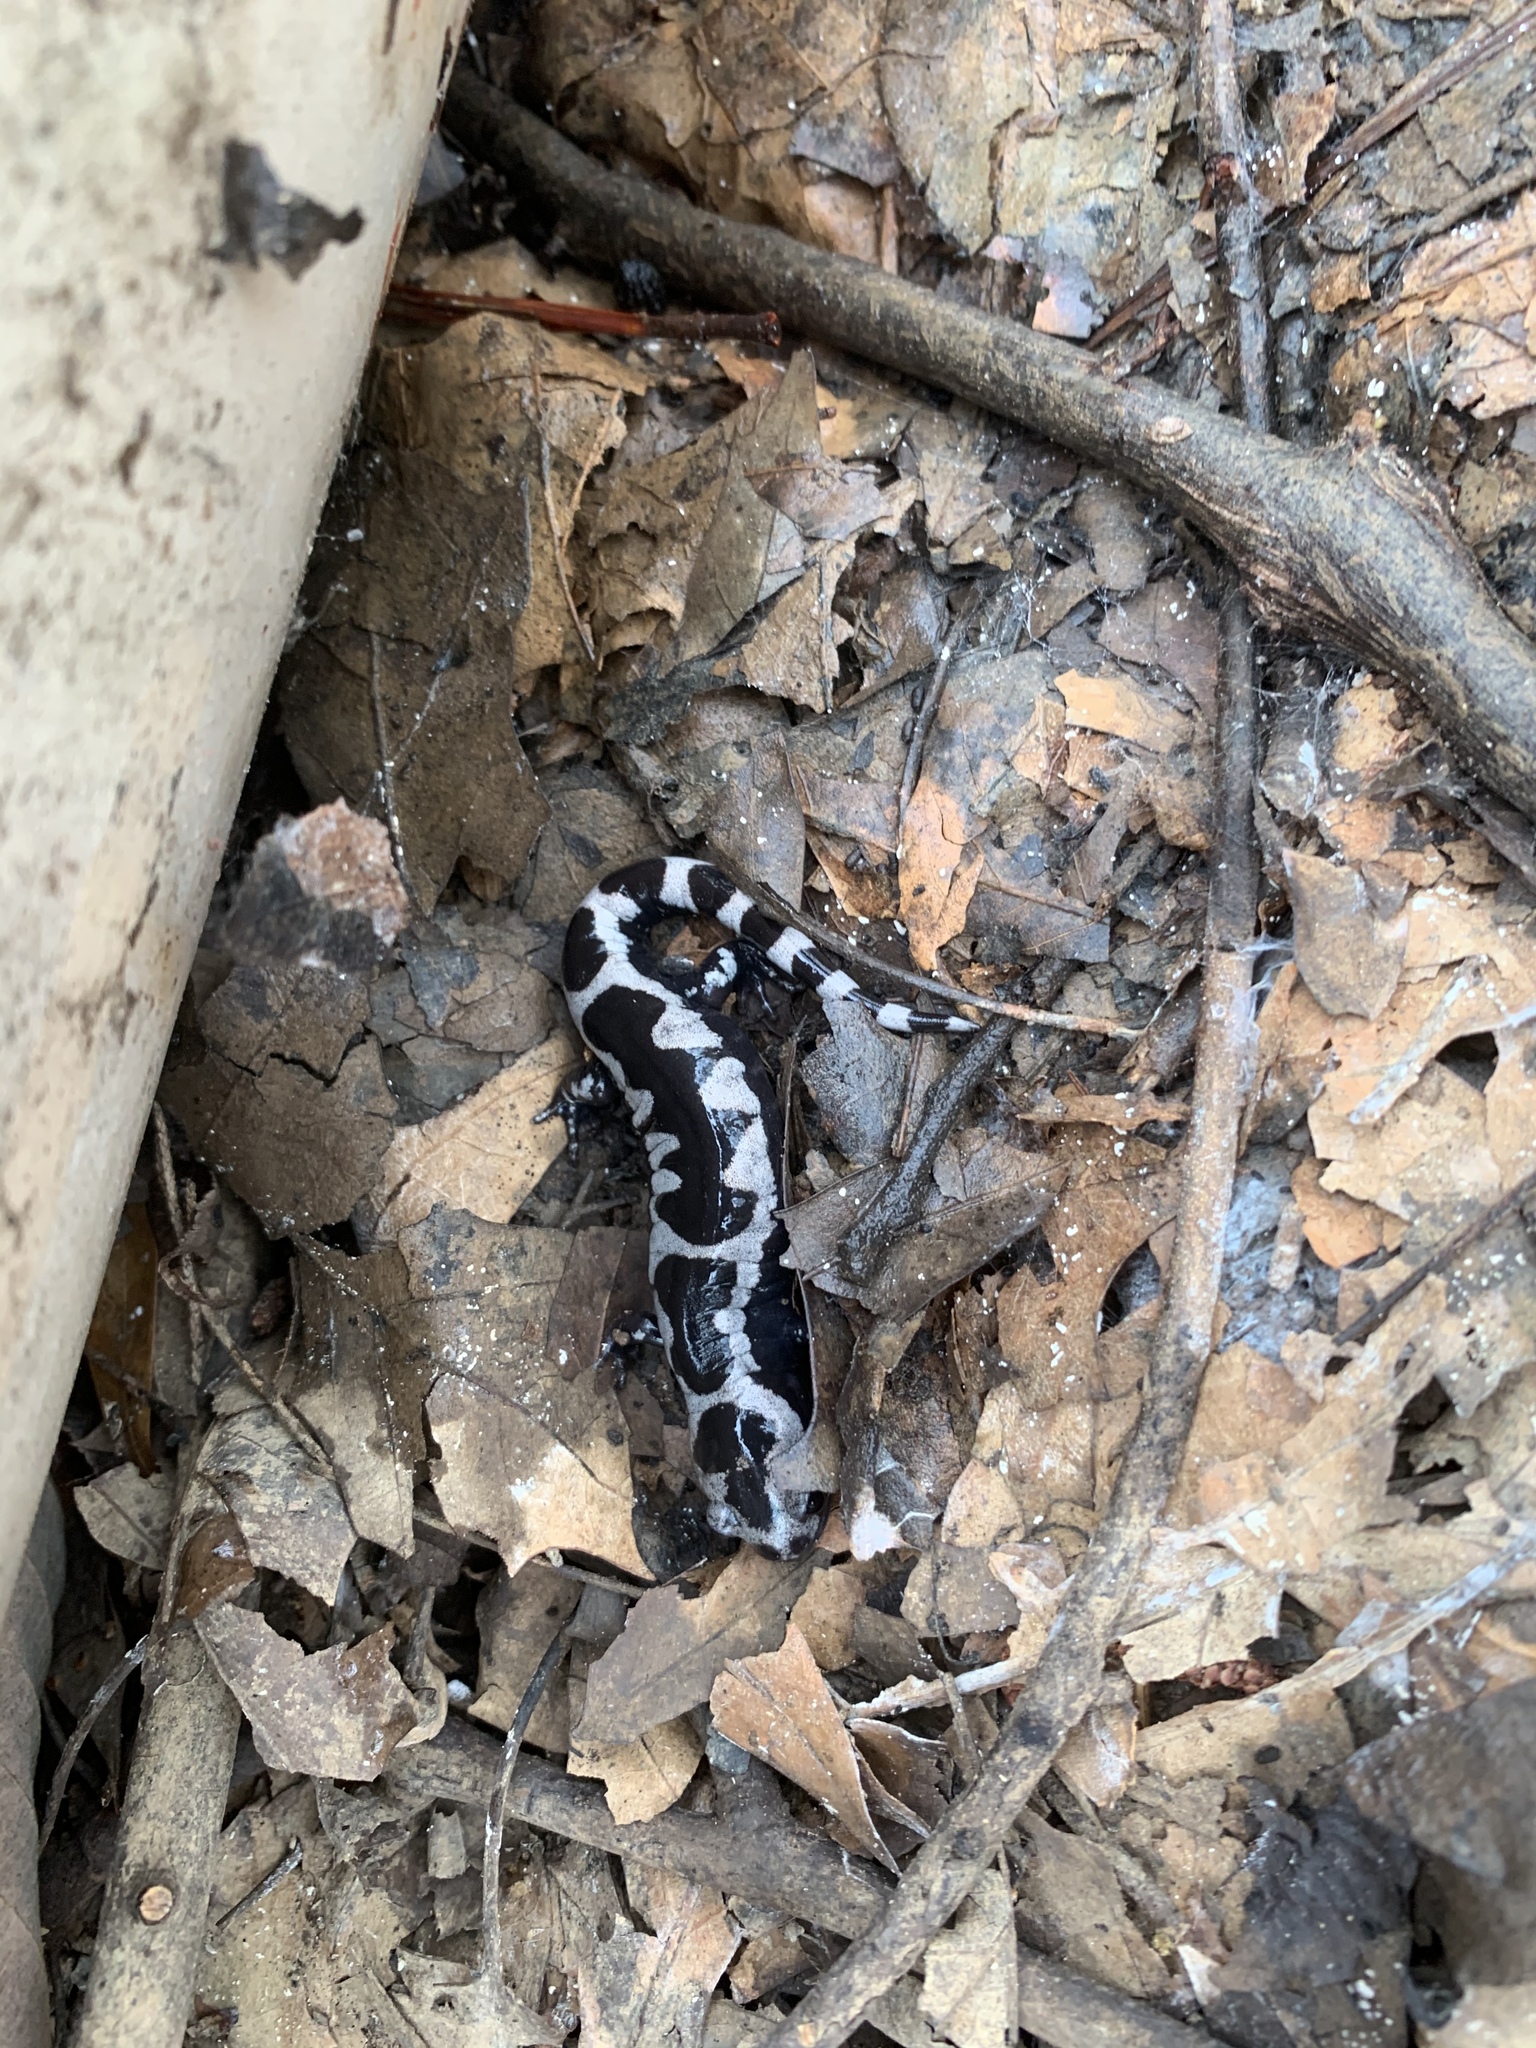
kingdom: Animalia
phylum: Chordata
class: Amphibia
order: Caudata
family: Ambystomatidae
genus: Ambystoma
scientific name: Ambystoma opacum
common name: Marbled salamander
